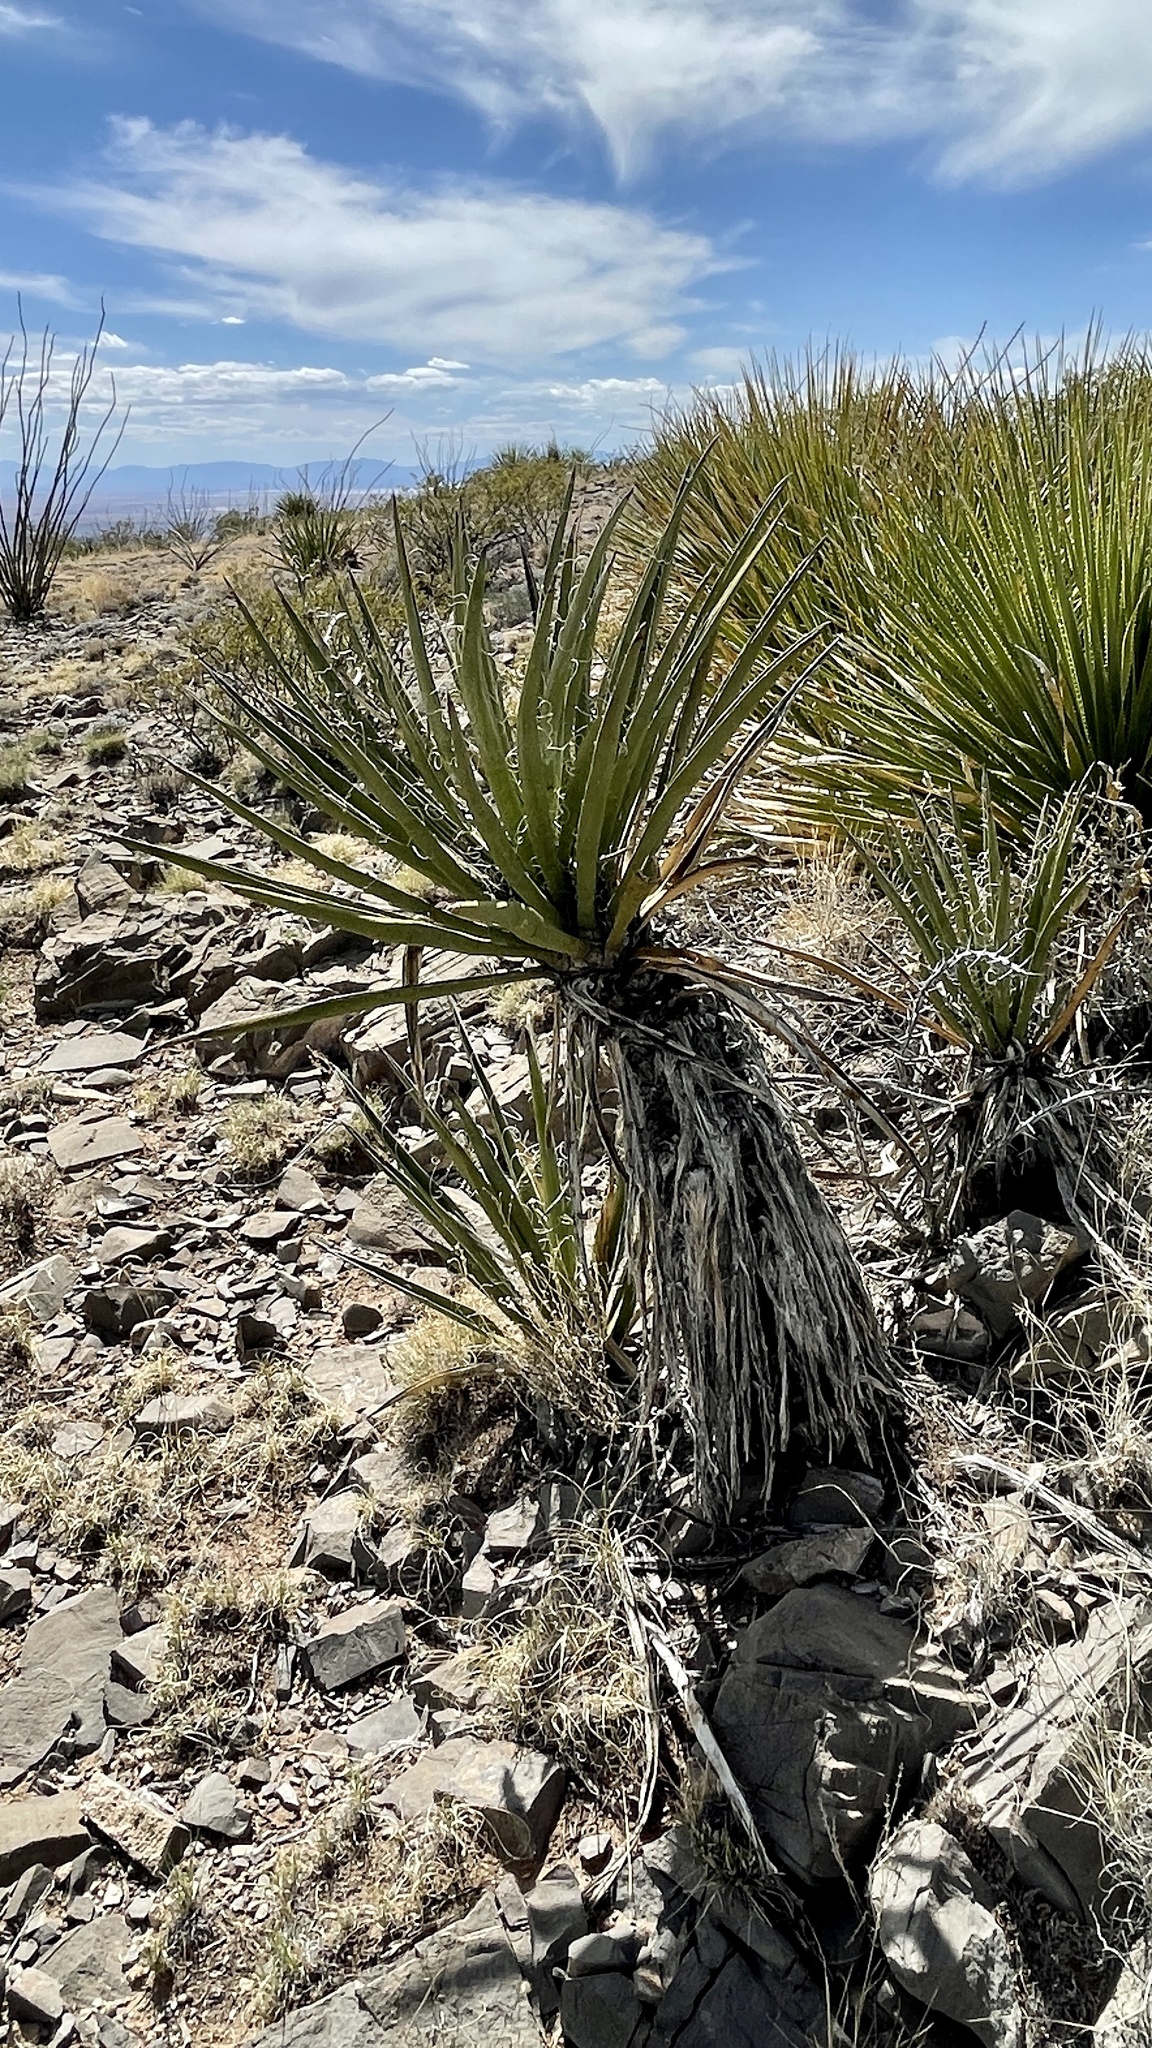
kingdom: Plantae
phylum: Tracheophyta
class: Liliopsida
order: Asparagales
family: Asparagaceae
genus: Yucca
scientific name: Yucca baccata
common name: Banana yucca
